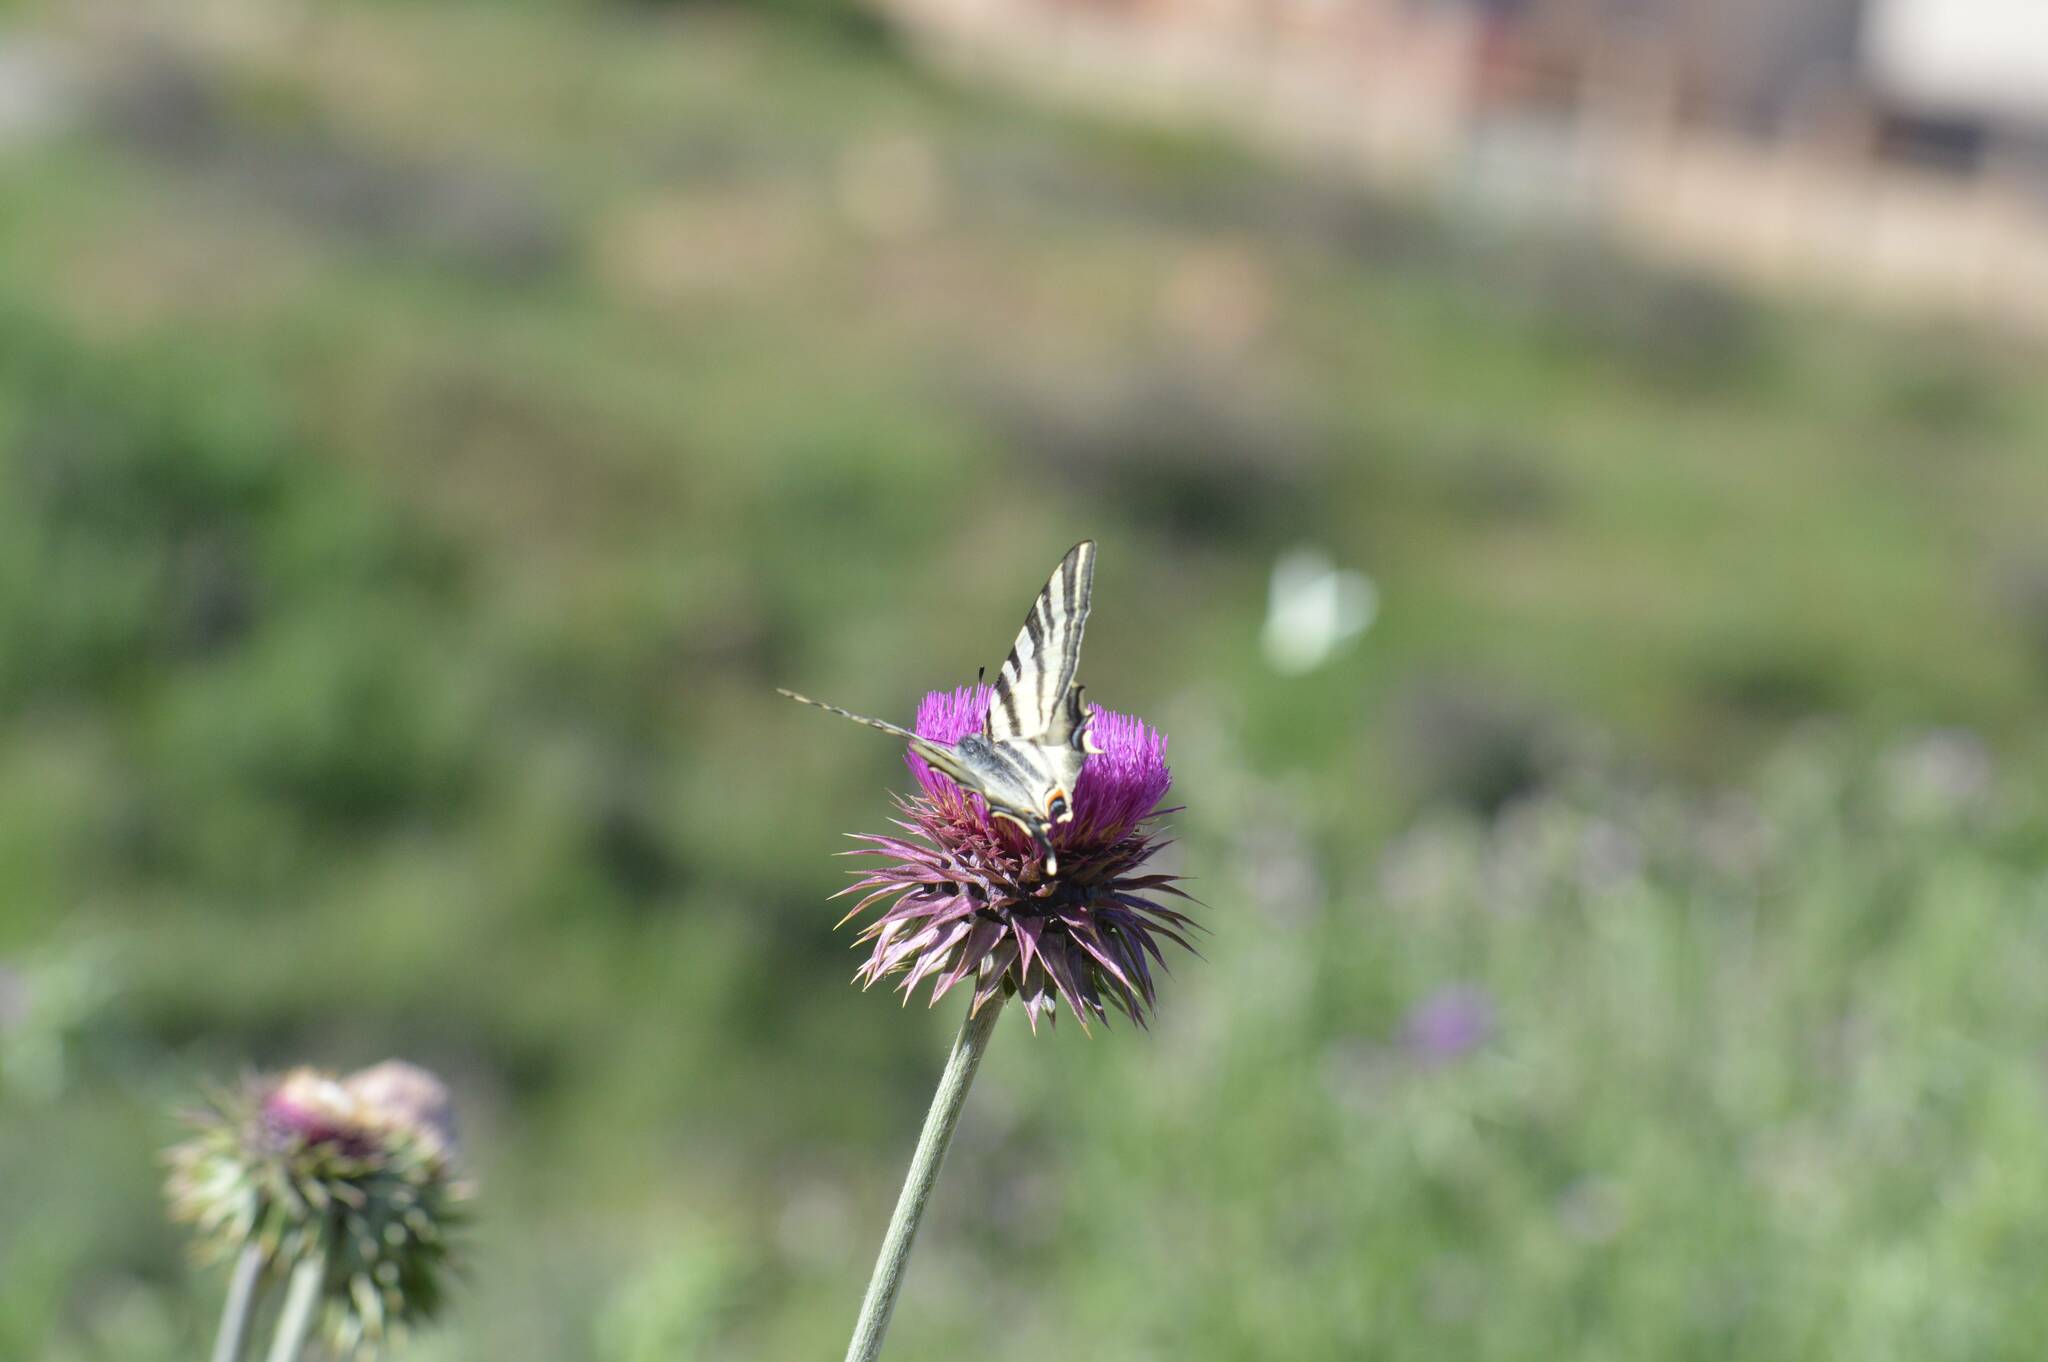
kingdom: Animalia
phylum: Arthropoda
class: Insecta
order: Lepidoptera
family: Papilionidae
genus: Iphiclides
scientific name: Iphiclides feisthamelii
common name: Iberian scarce swallowtail
